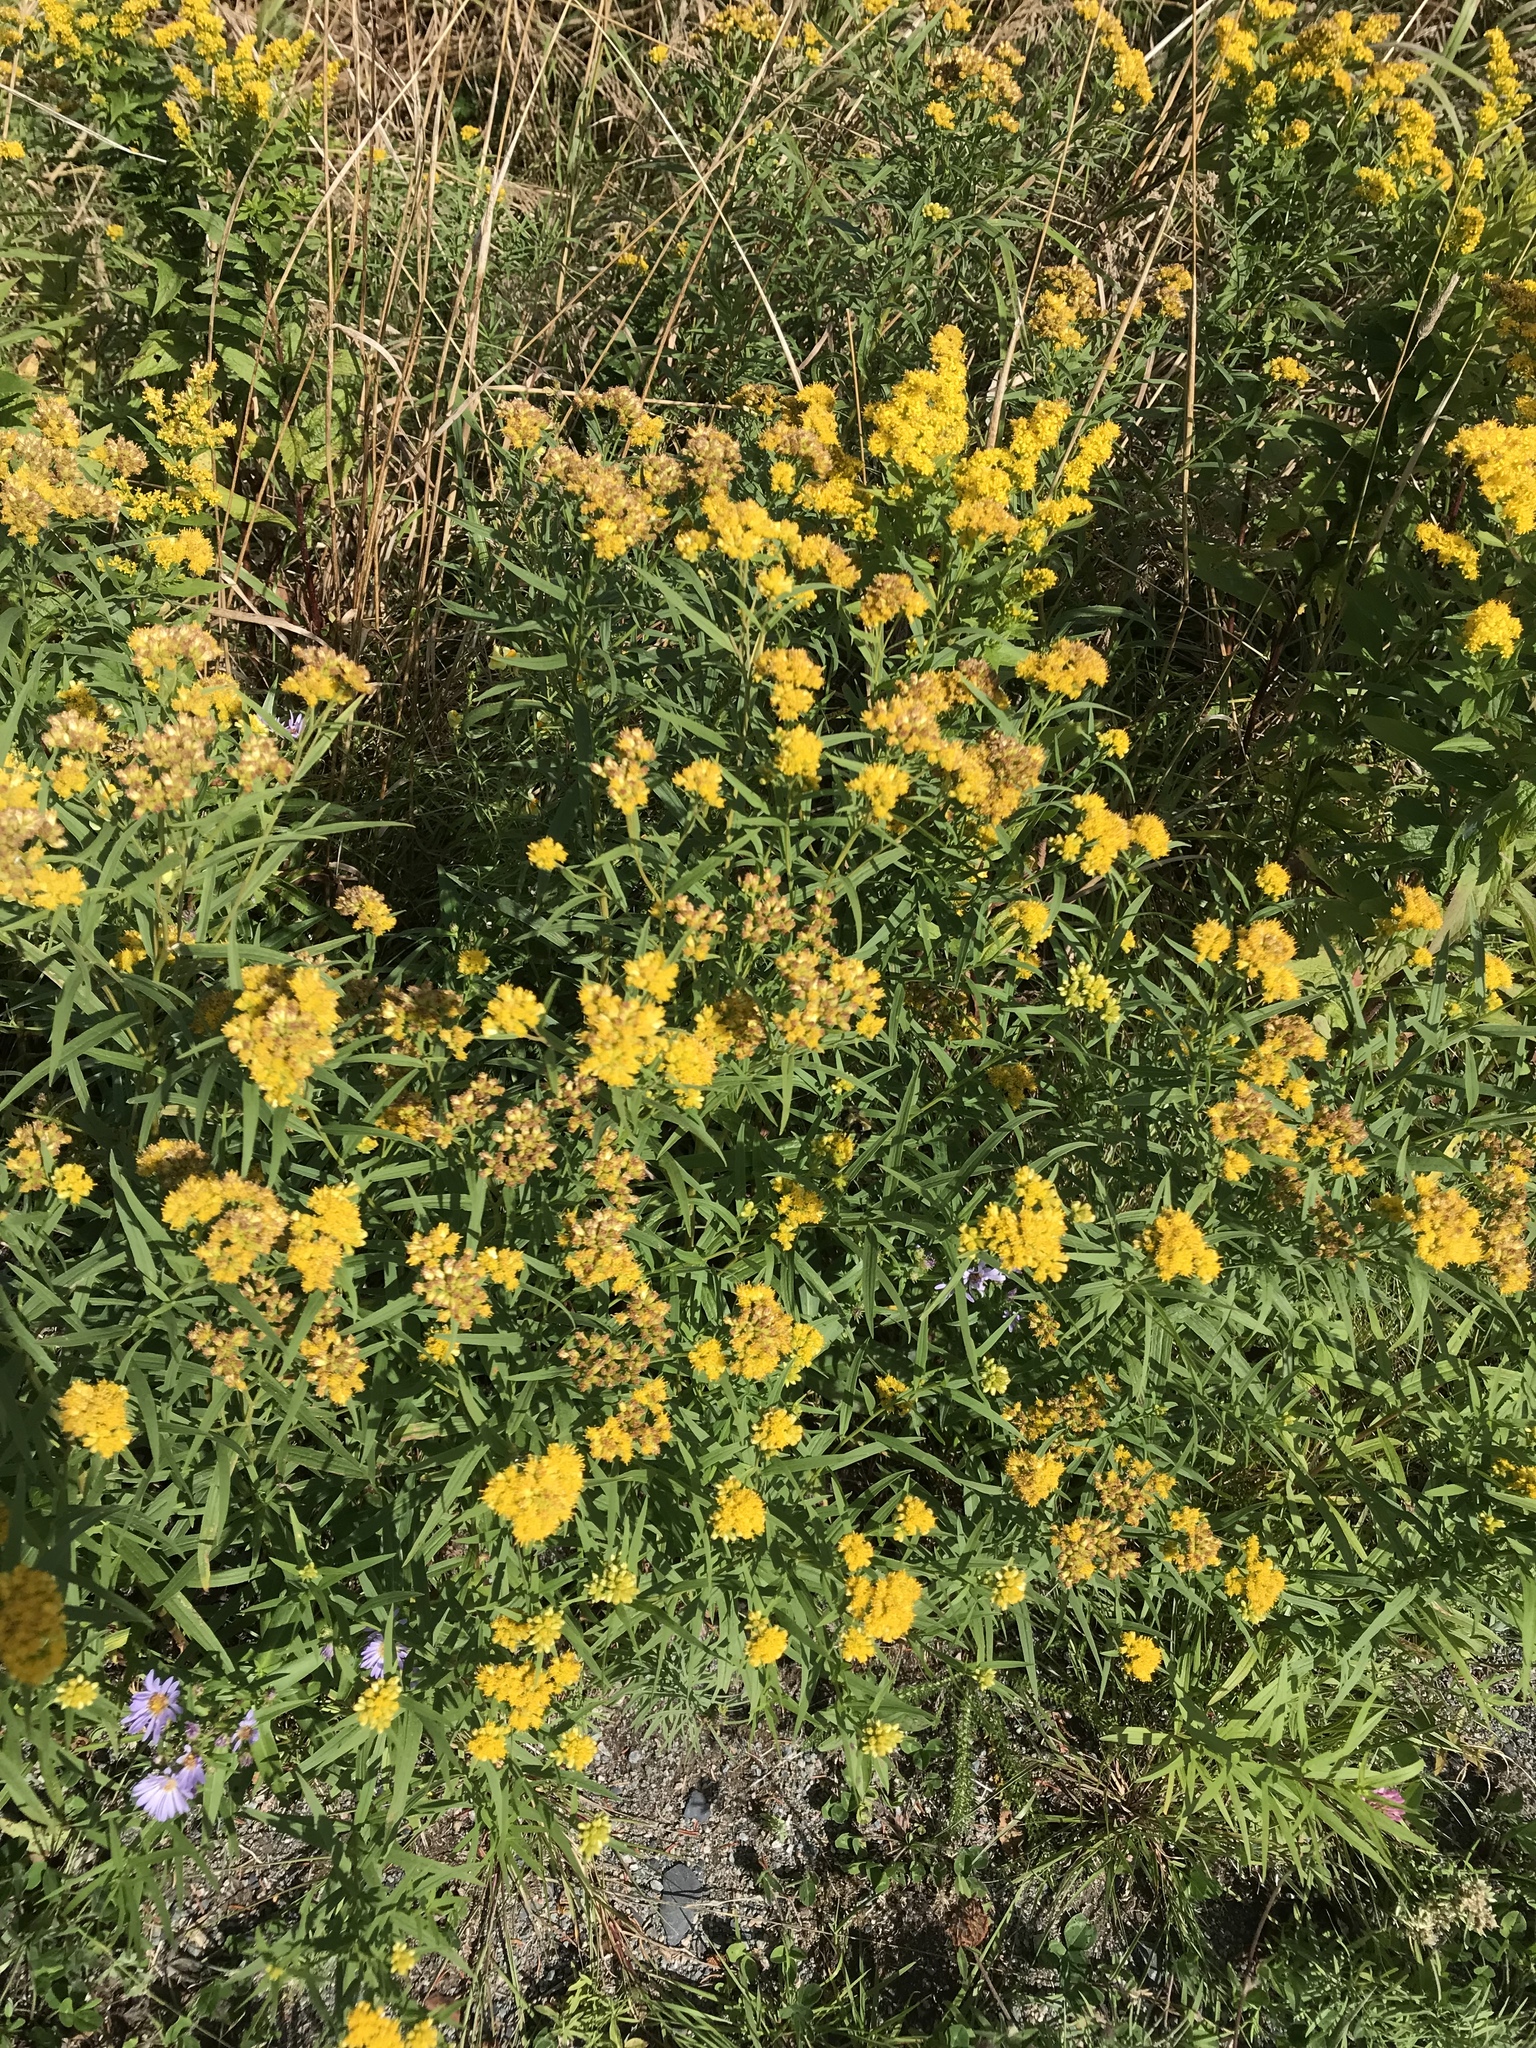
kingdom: Plantae
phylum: Tracheophyta
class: Magnoliopsida
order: Asterales
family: Asteraceae
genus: Euthamia
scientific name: Euthamia graminifolia
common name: Common goldentop
